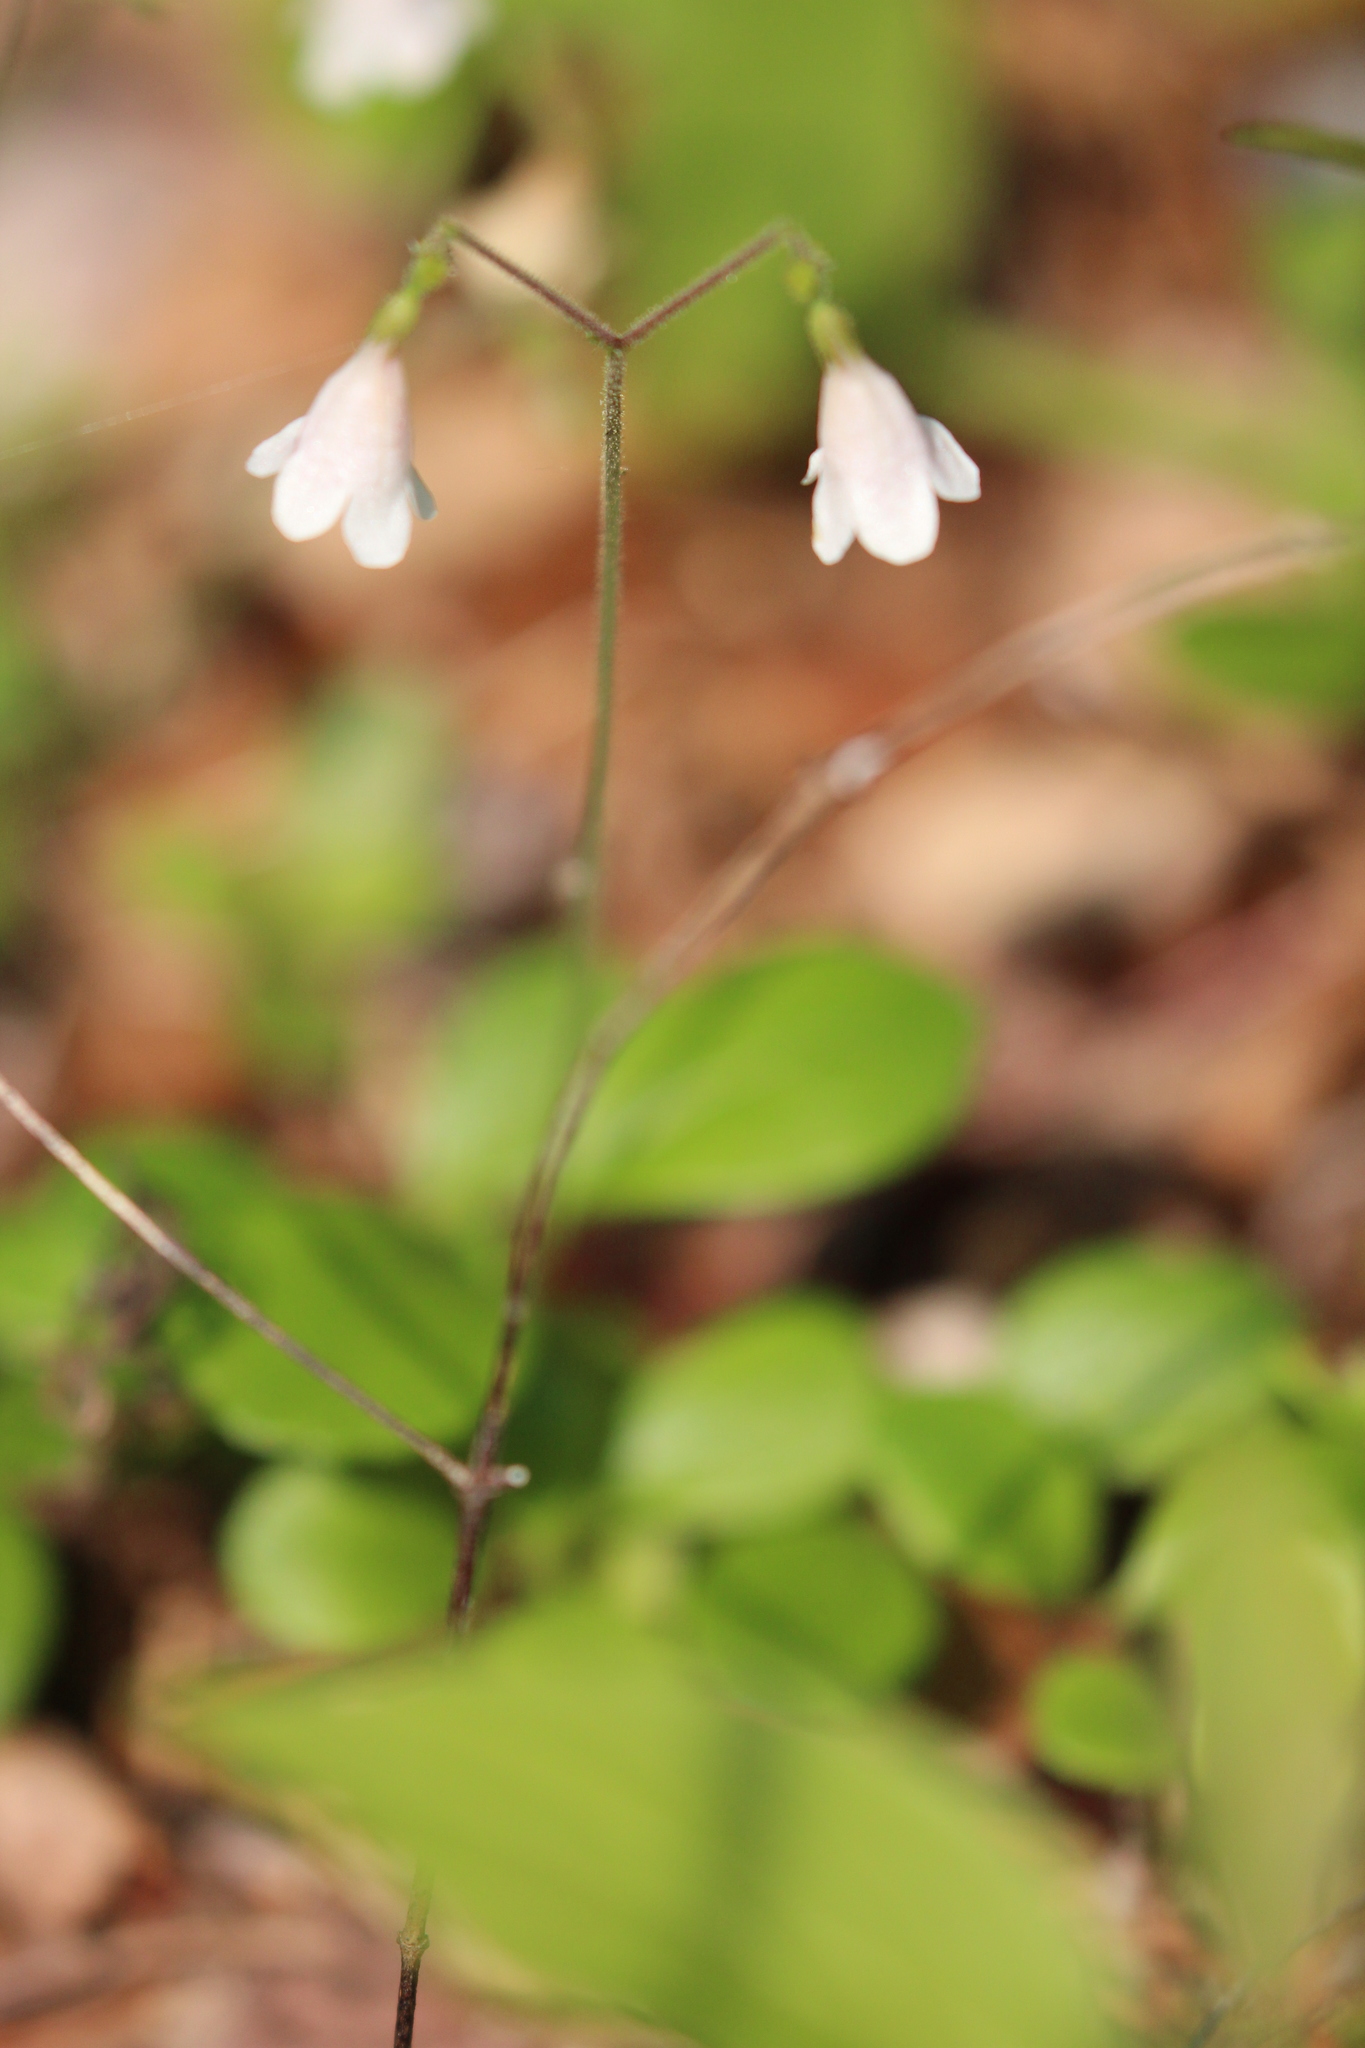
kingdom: Plantae
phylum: Tracheophyta
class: Magnoliopsida
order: Dipsacales
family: Caprifoliaceae
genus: Linnaea
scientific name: Linnaea borealis
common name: Twinflower
